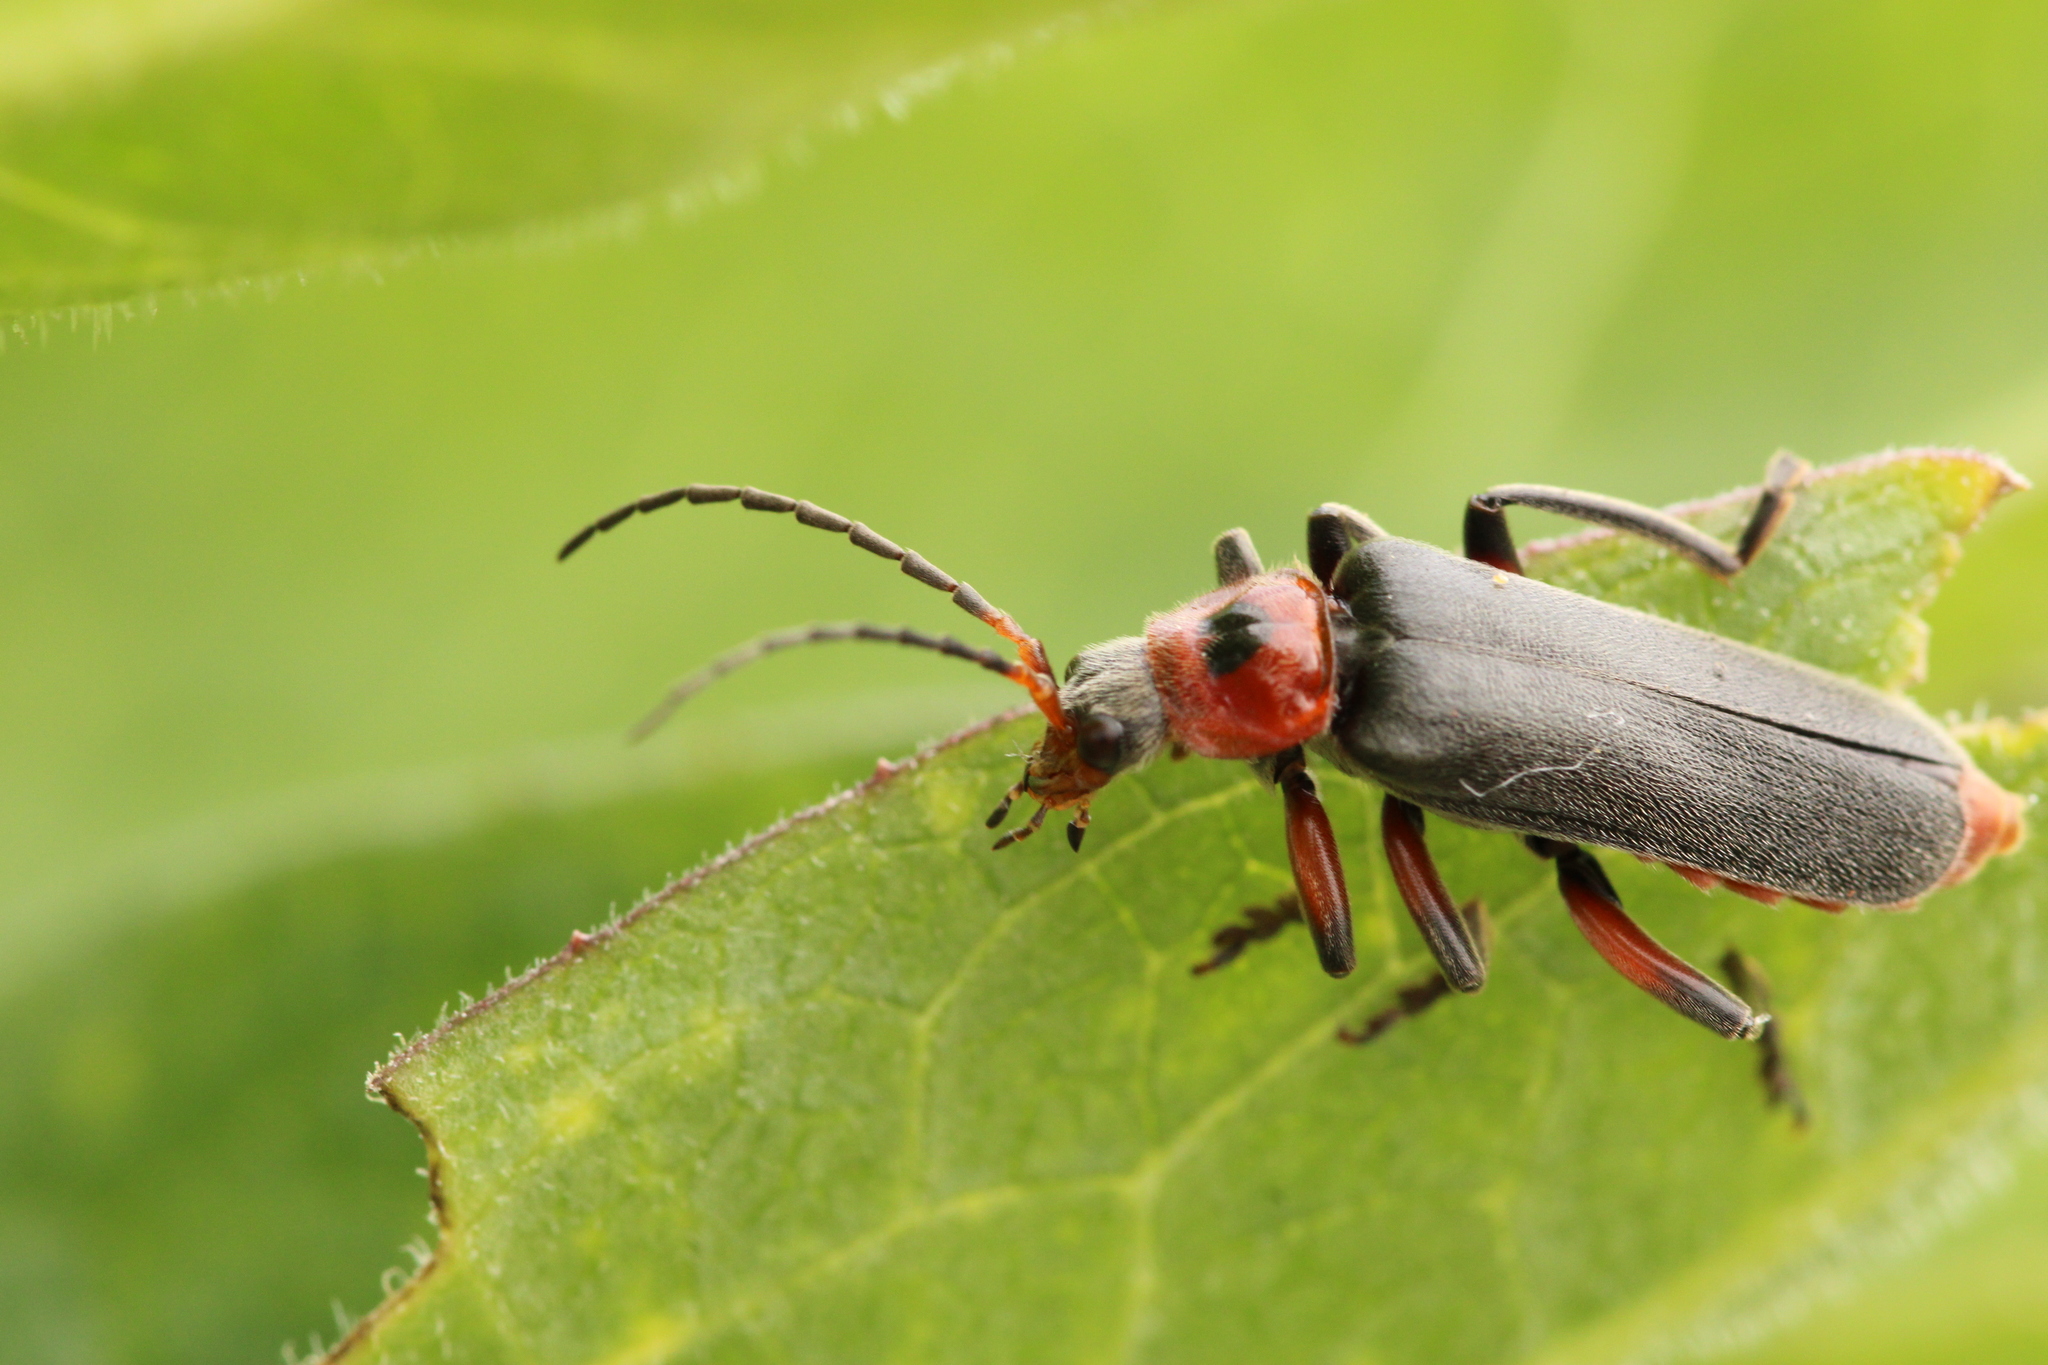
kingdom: Animalia
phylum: Arthropoda
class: Insecta
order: Coleoptera
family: Cantharidae
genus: Cantharis
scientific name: Cantharis rustica
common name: Soldier beetle
